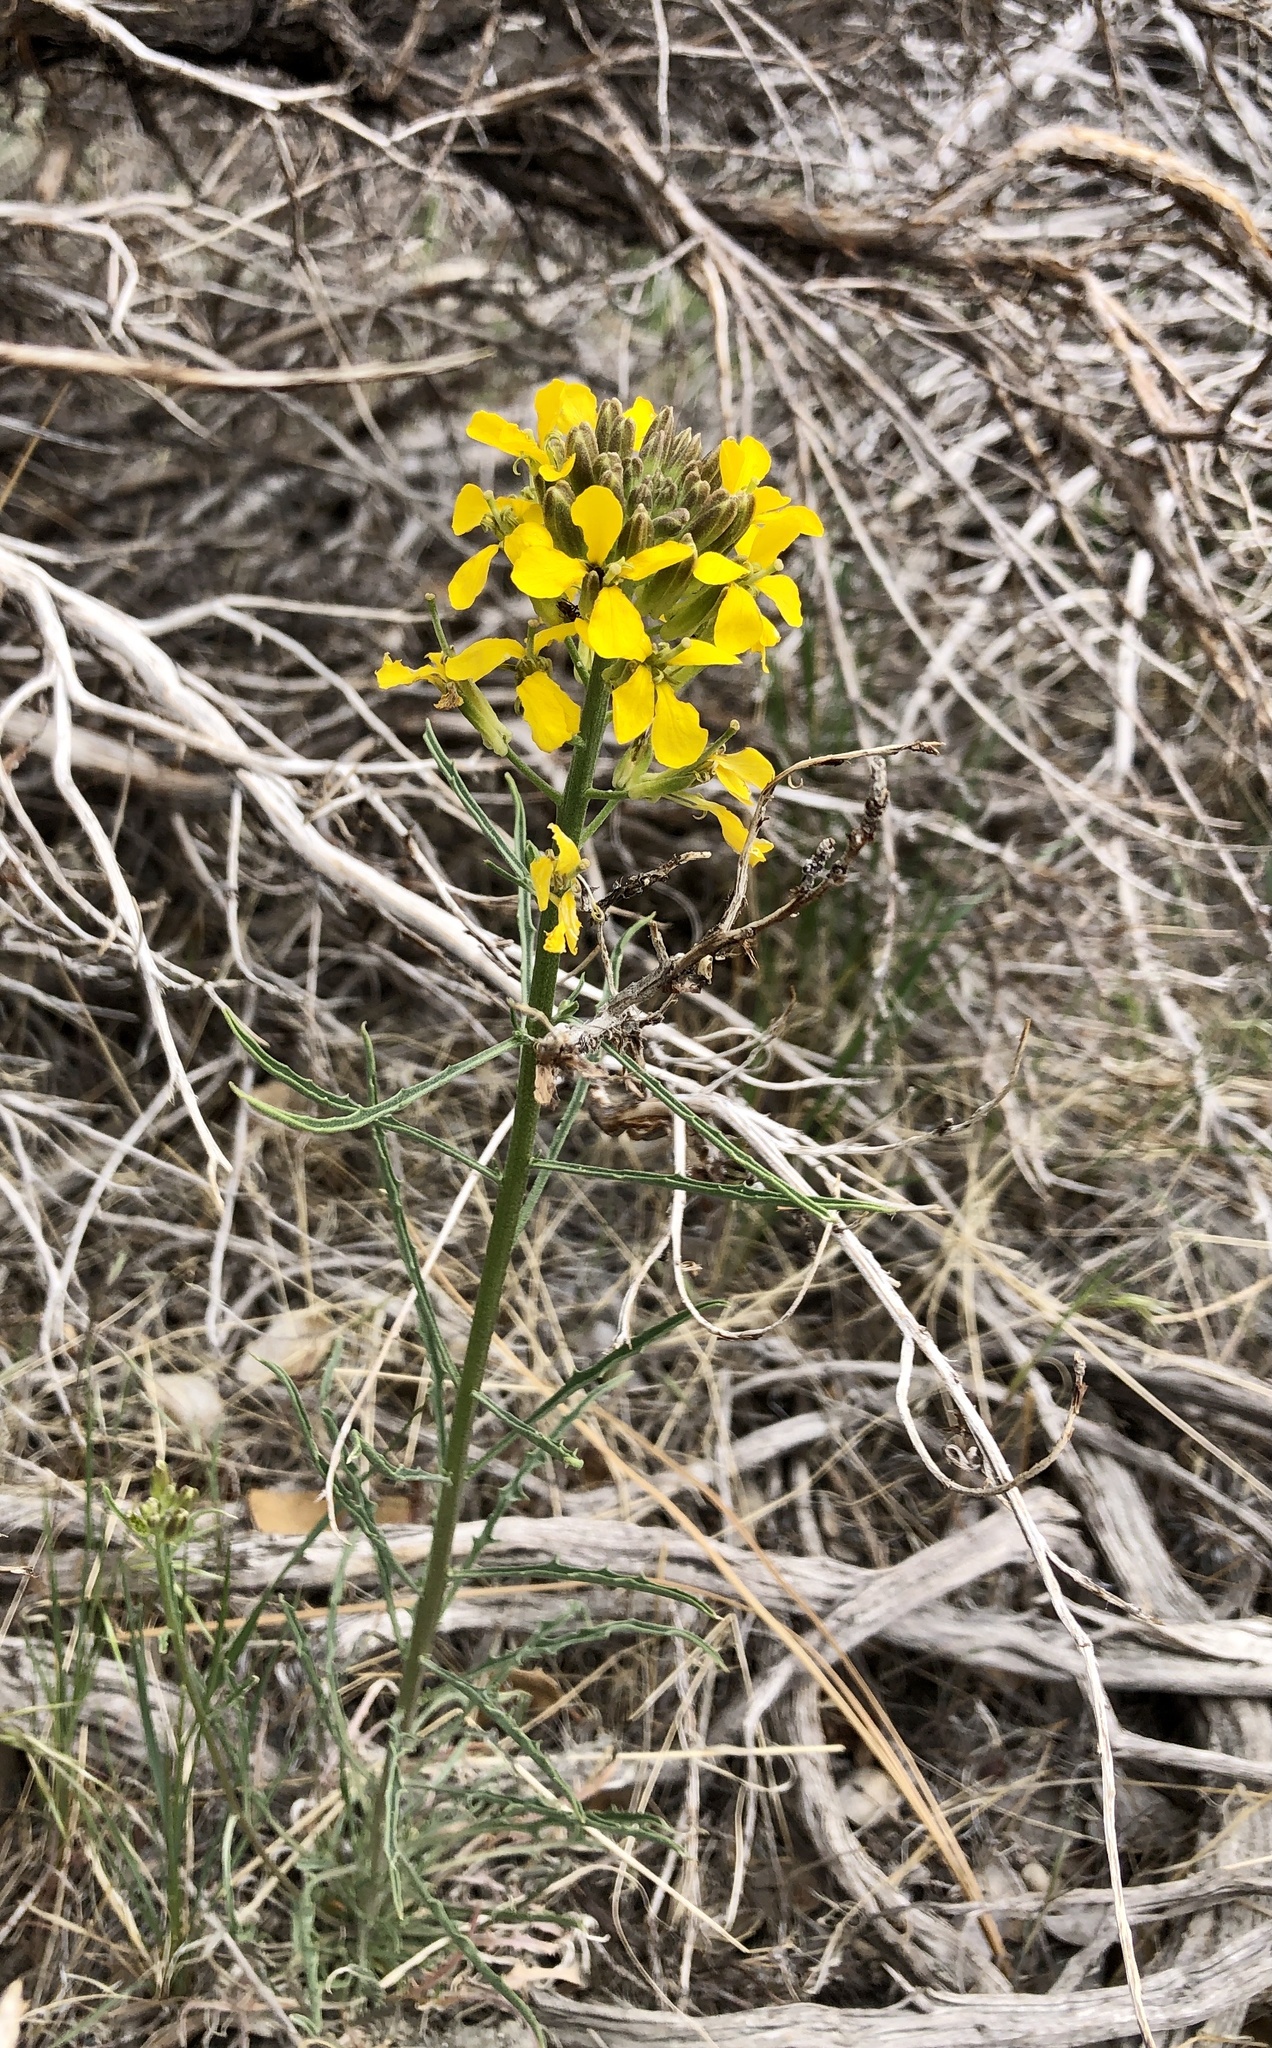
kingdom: Plantae
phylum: Tracheophyta
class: Magnoliopsida
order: Brassicales
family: Brassicaceae
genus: Erysimum
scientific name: Erysimum capitatum
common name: Western wallflower
